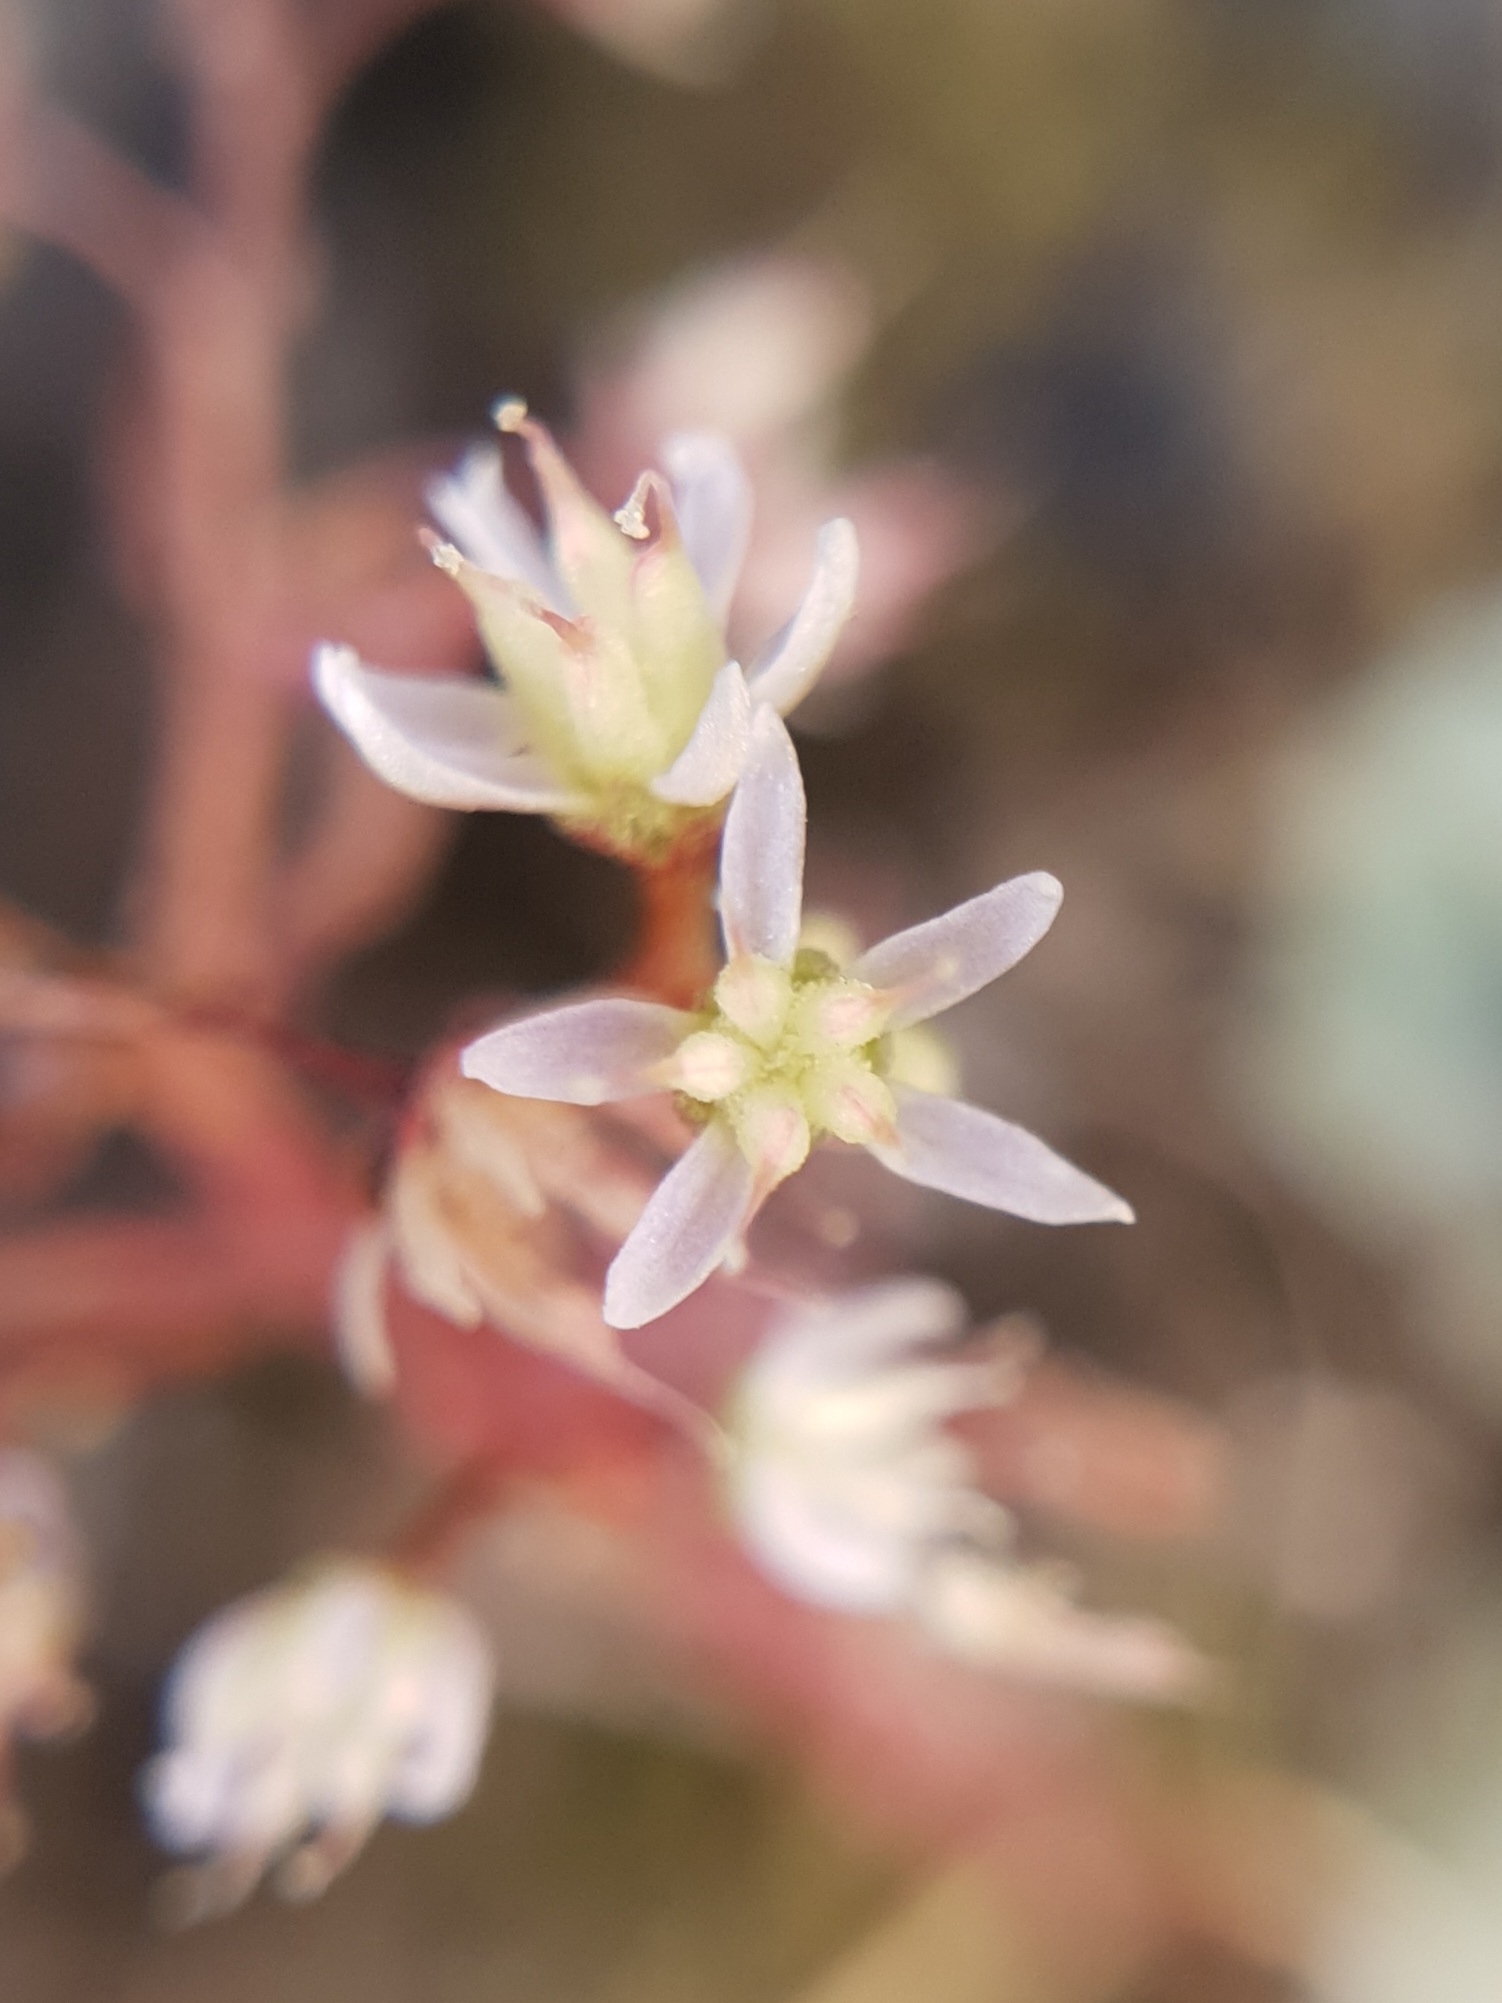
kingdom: Plantae
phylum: Tracheophyta
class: Magnoliopsida
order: Saxifragales
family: Crassulaceae
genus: Sedum
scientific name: Sedum dasyphyllum
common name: Thick-leaf stonecrop
